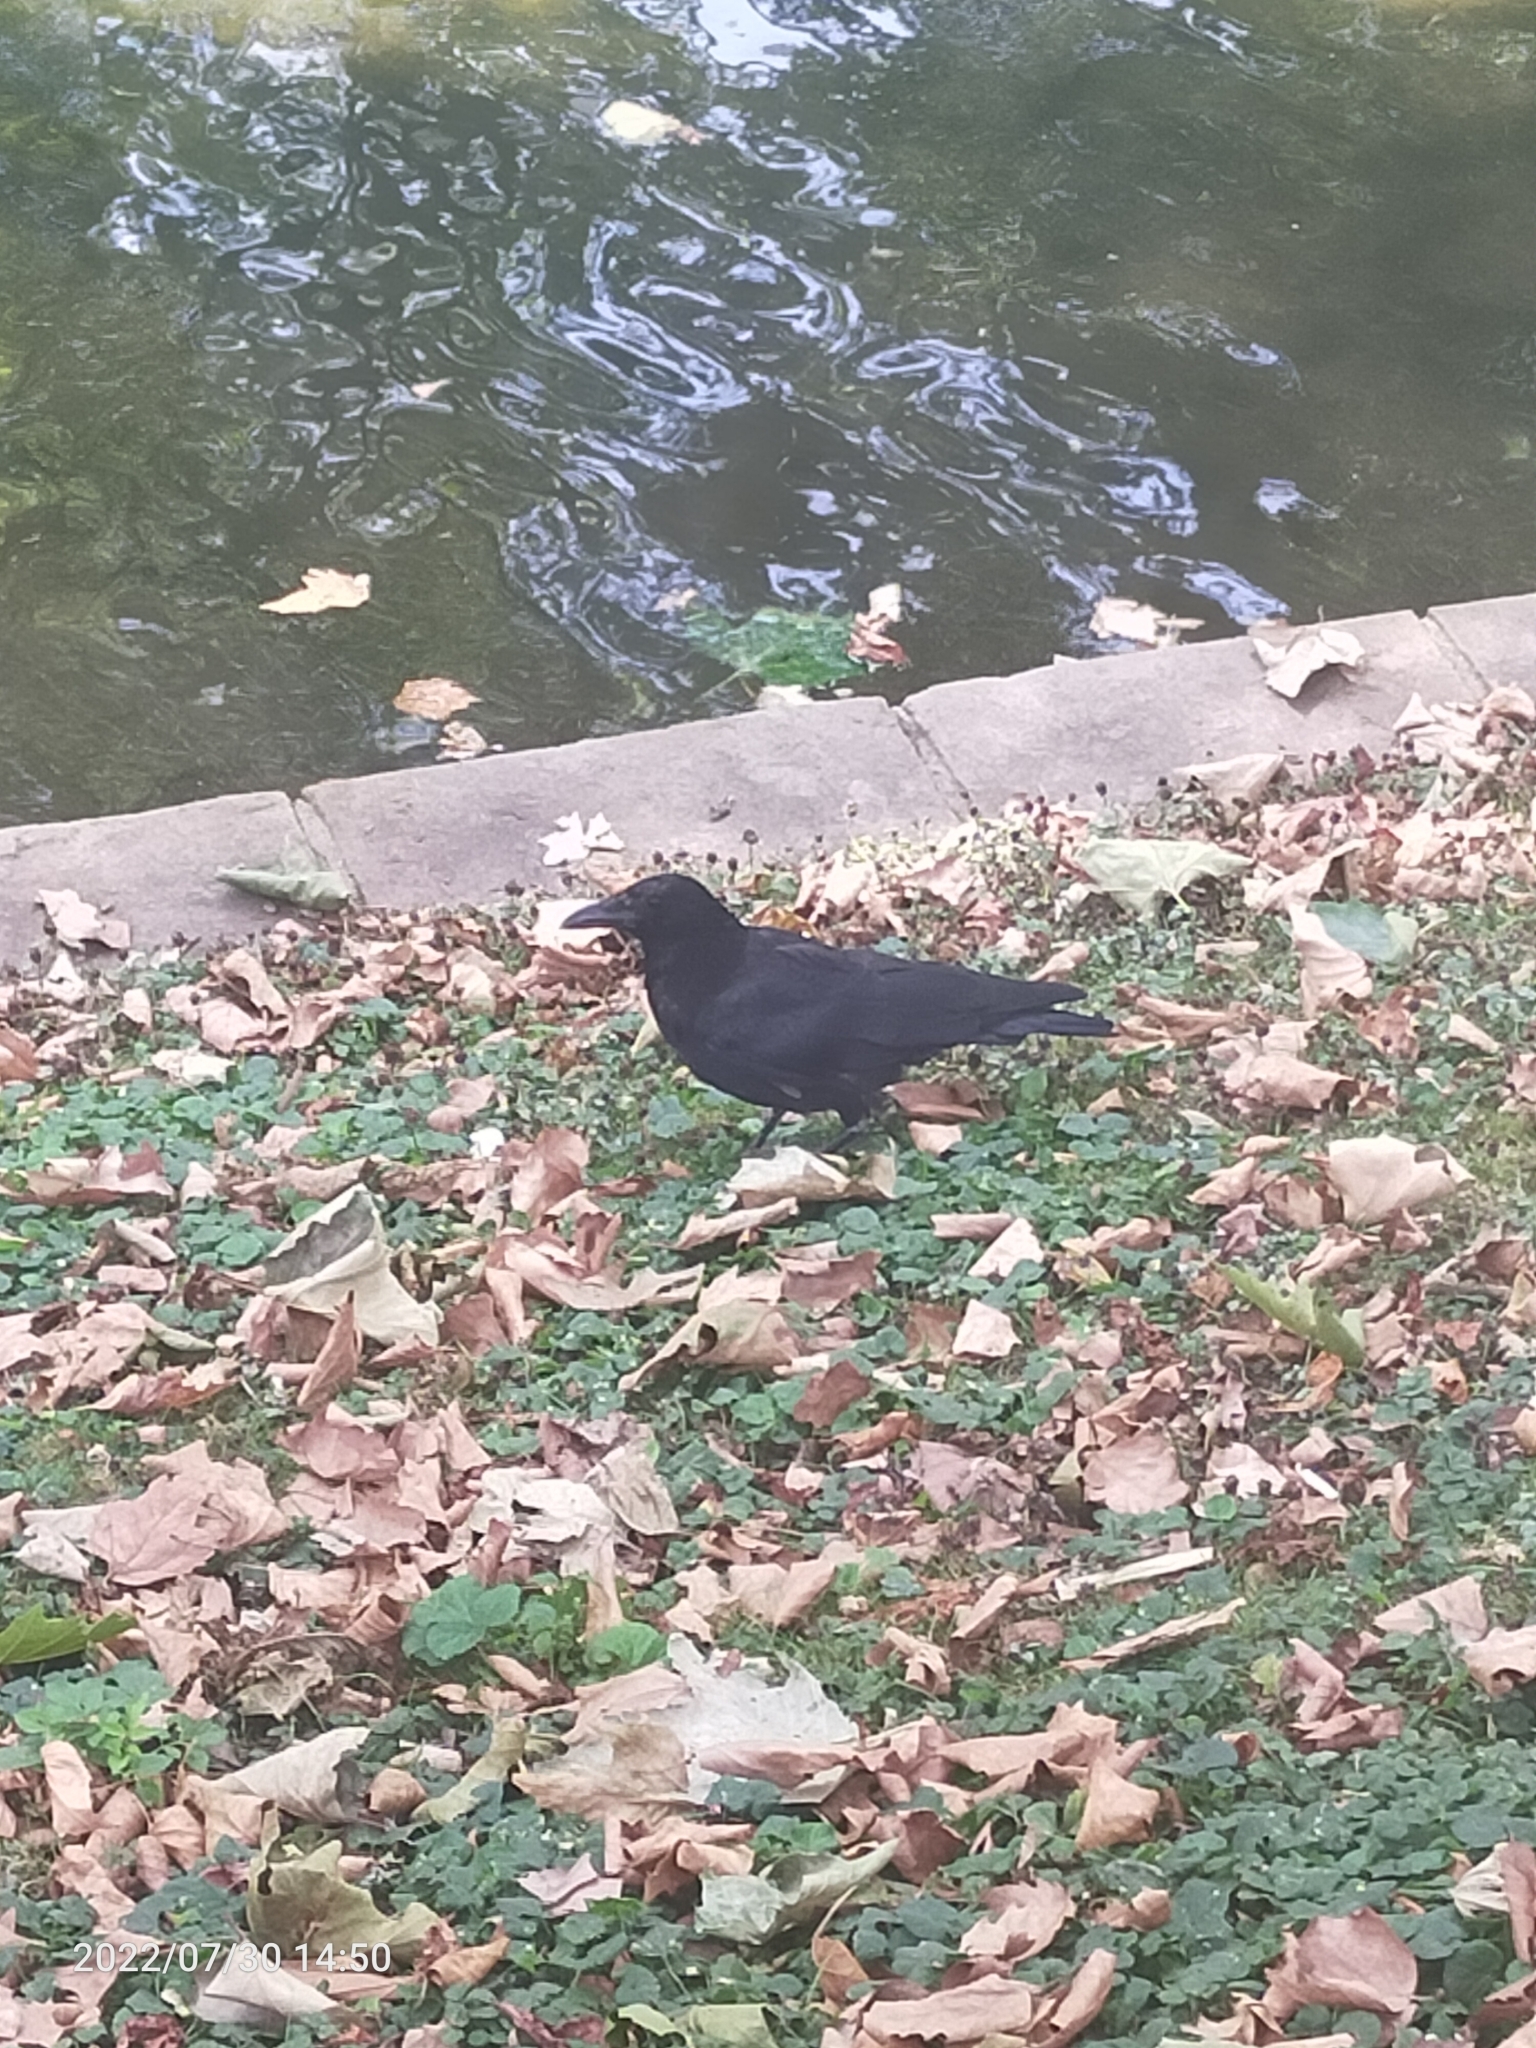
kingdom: Animalia
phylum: Chordata
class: Aves
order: Passeriformes
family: Corvidae
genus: Corvus
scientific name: Corvus corone
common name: Carrion crow
